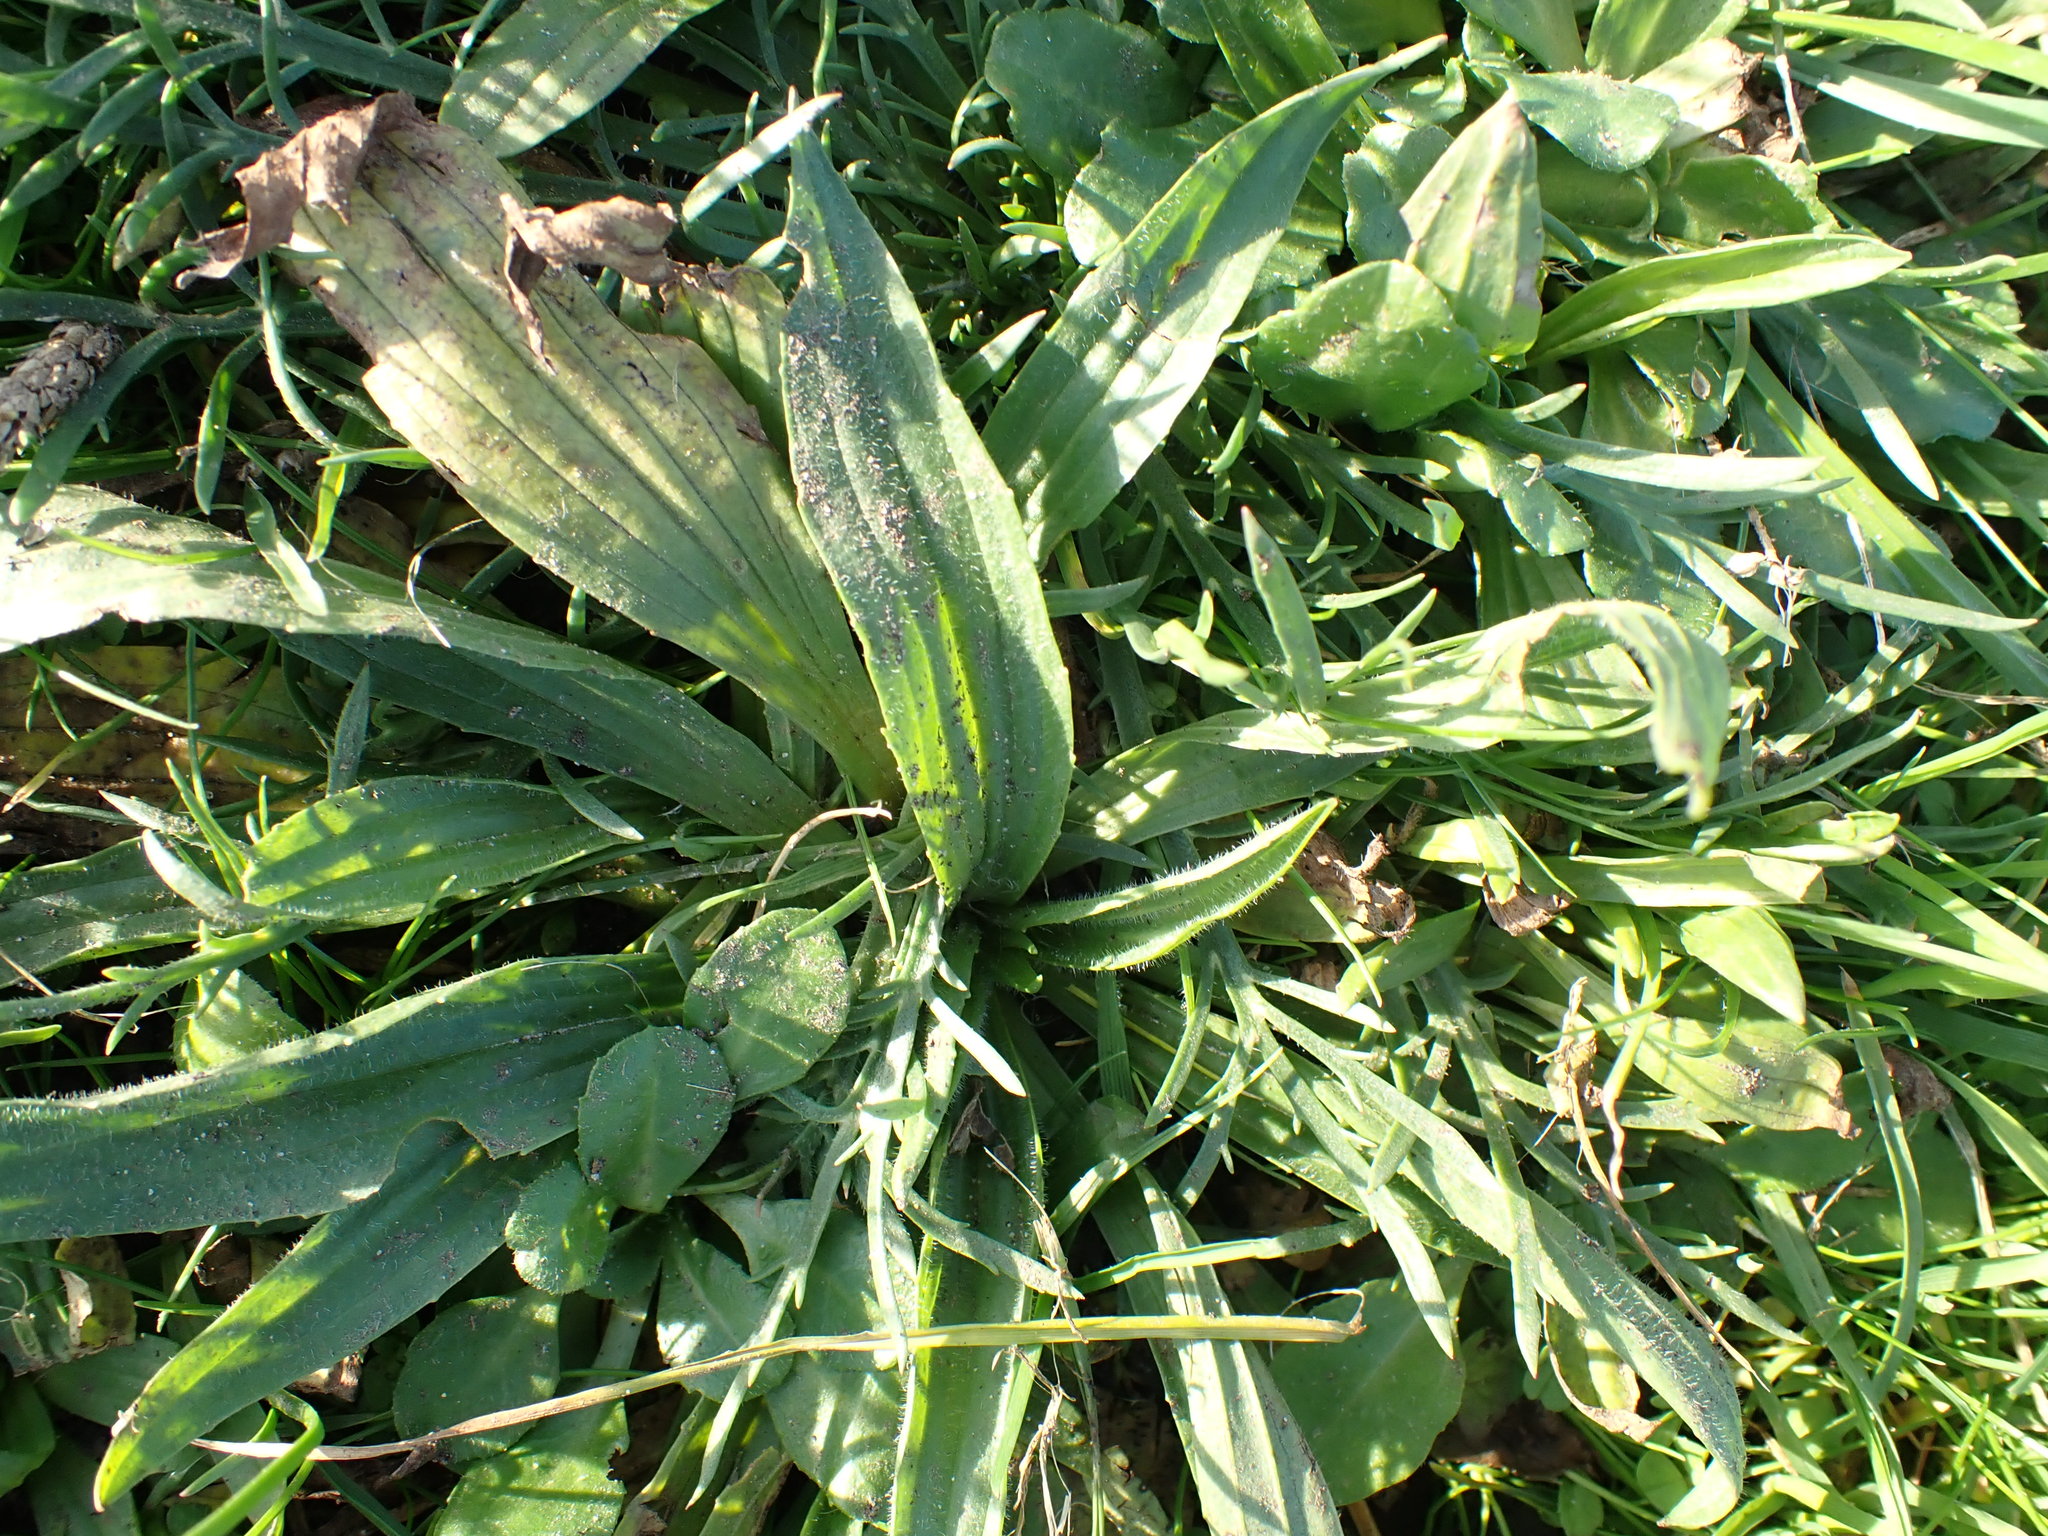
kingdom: Plantae
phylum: Tracheophyta
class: Magnoliopsida
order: Lamiales
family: Plantaginaceae
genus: Plantago
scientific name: Plantago lanceolata
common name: Ribwort plantain
